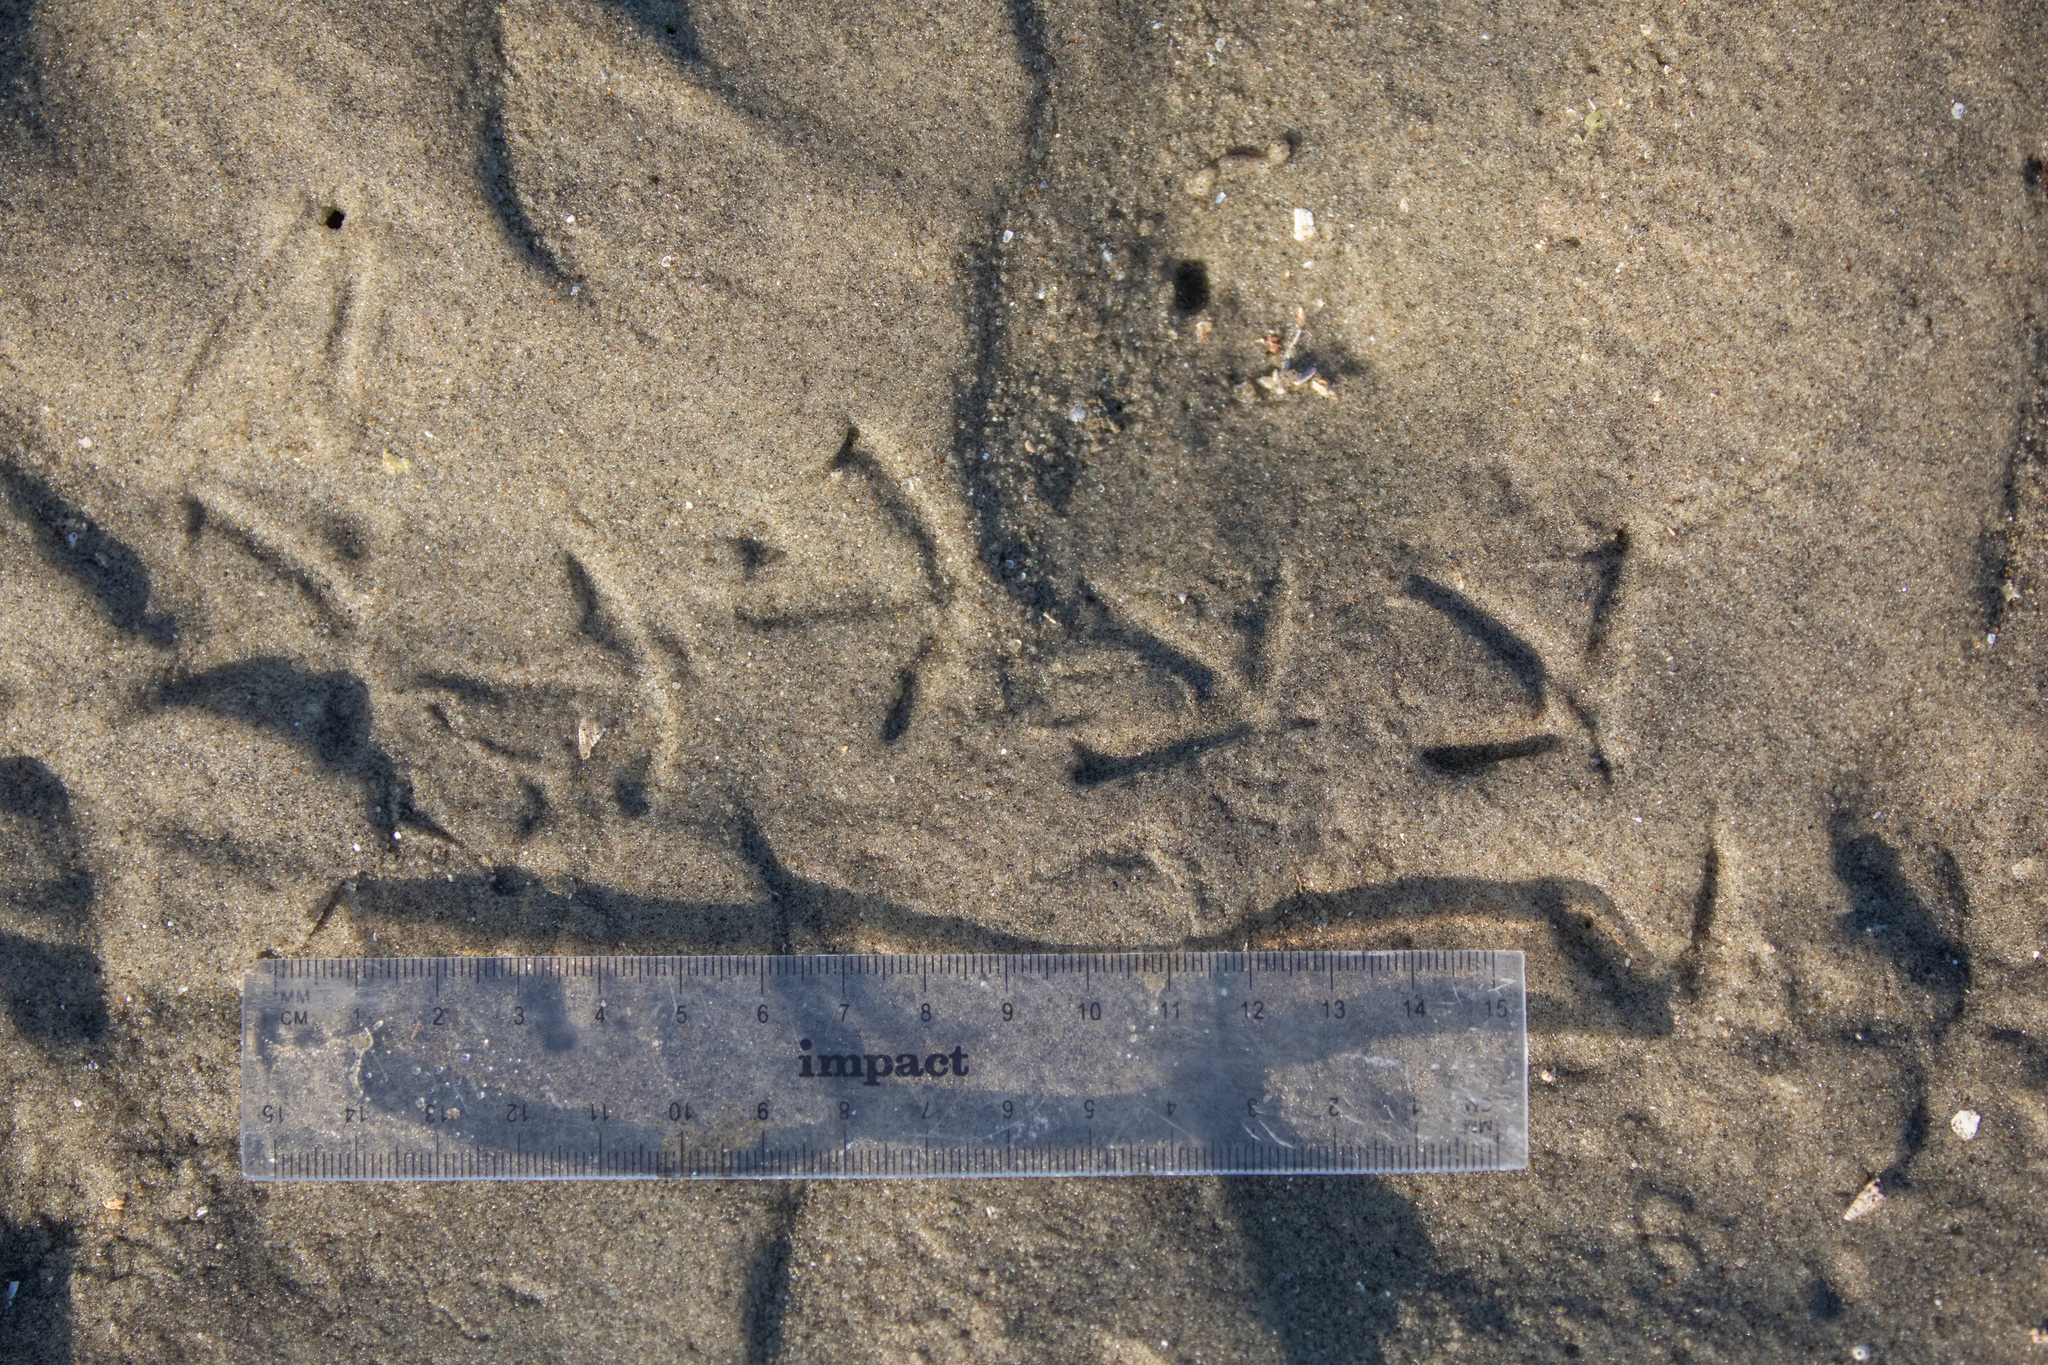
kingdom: Animalia
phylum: Chordata
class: Aves
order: Charadriiformes
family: Scolopacidae
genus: Calidris
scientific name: Calidris canutus
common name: Red knot
